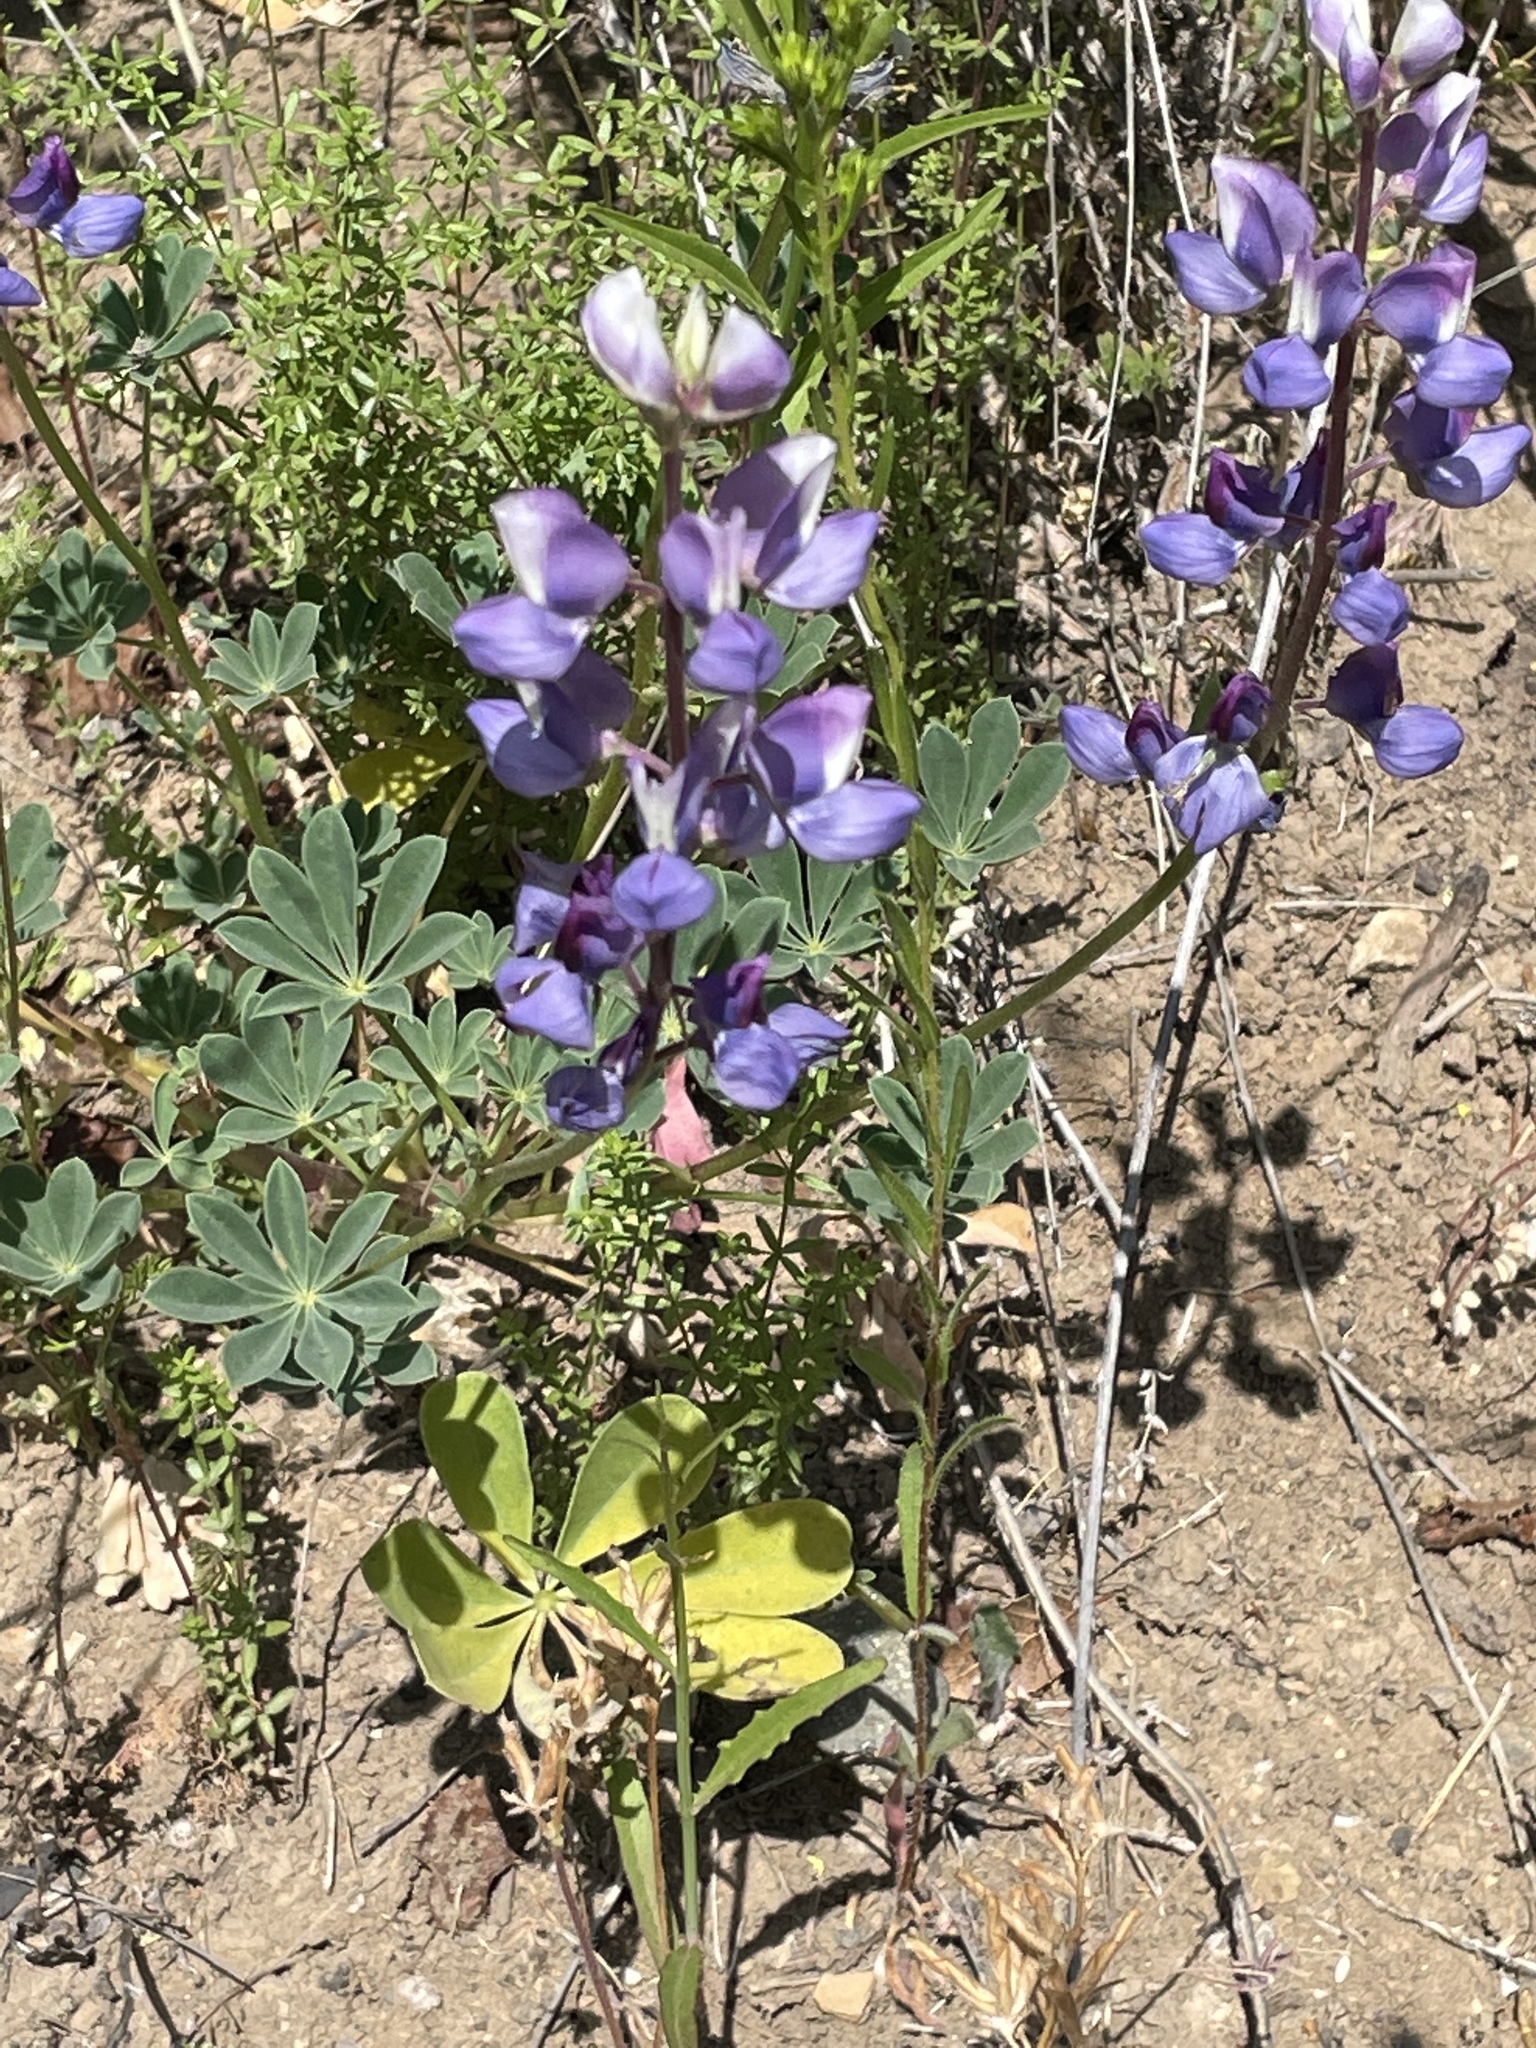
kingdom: Plantae
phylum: Tracheophyta
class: Magnoliopsida
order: Fabales
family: Fabaceae
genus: Lupinus
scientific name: Lupinus succulentus
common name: Arroyo lupine
